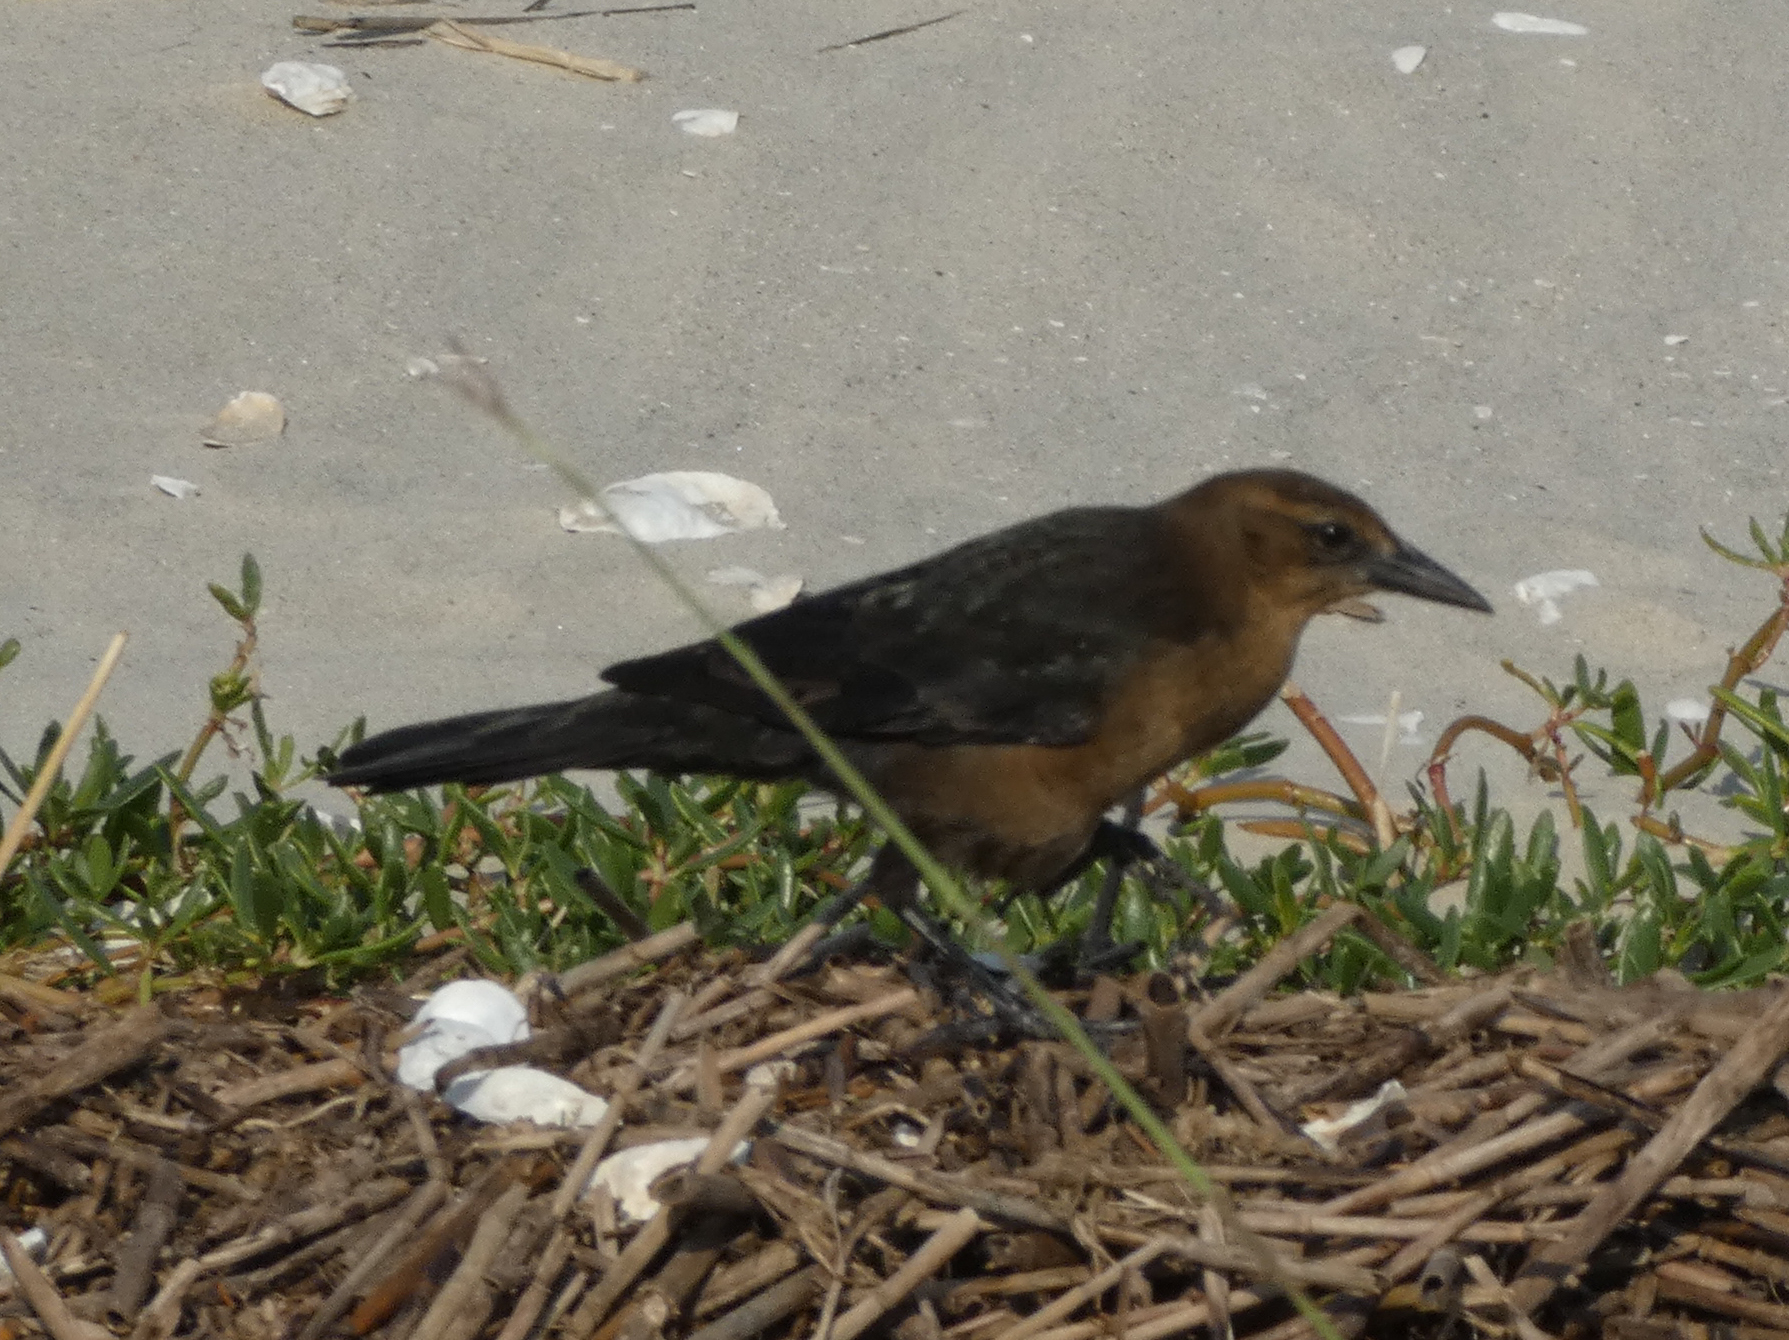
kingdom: Animalia
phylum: Chordata
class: Aves
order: Passeriformes
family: Icteridae
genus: Quiscalus
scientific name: Quiscalus major
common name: Boat-tailed grackle
